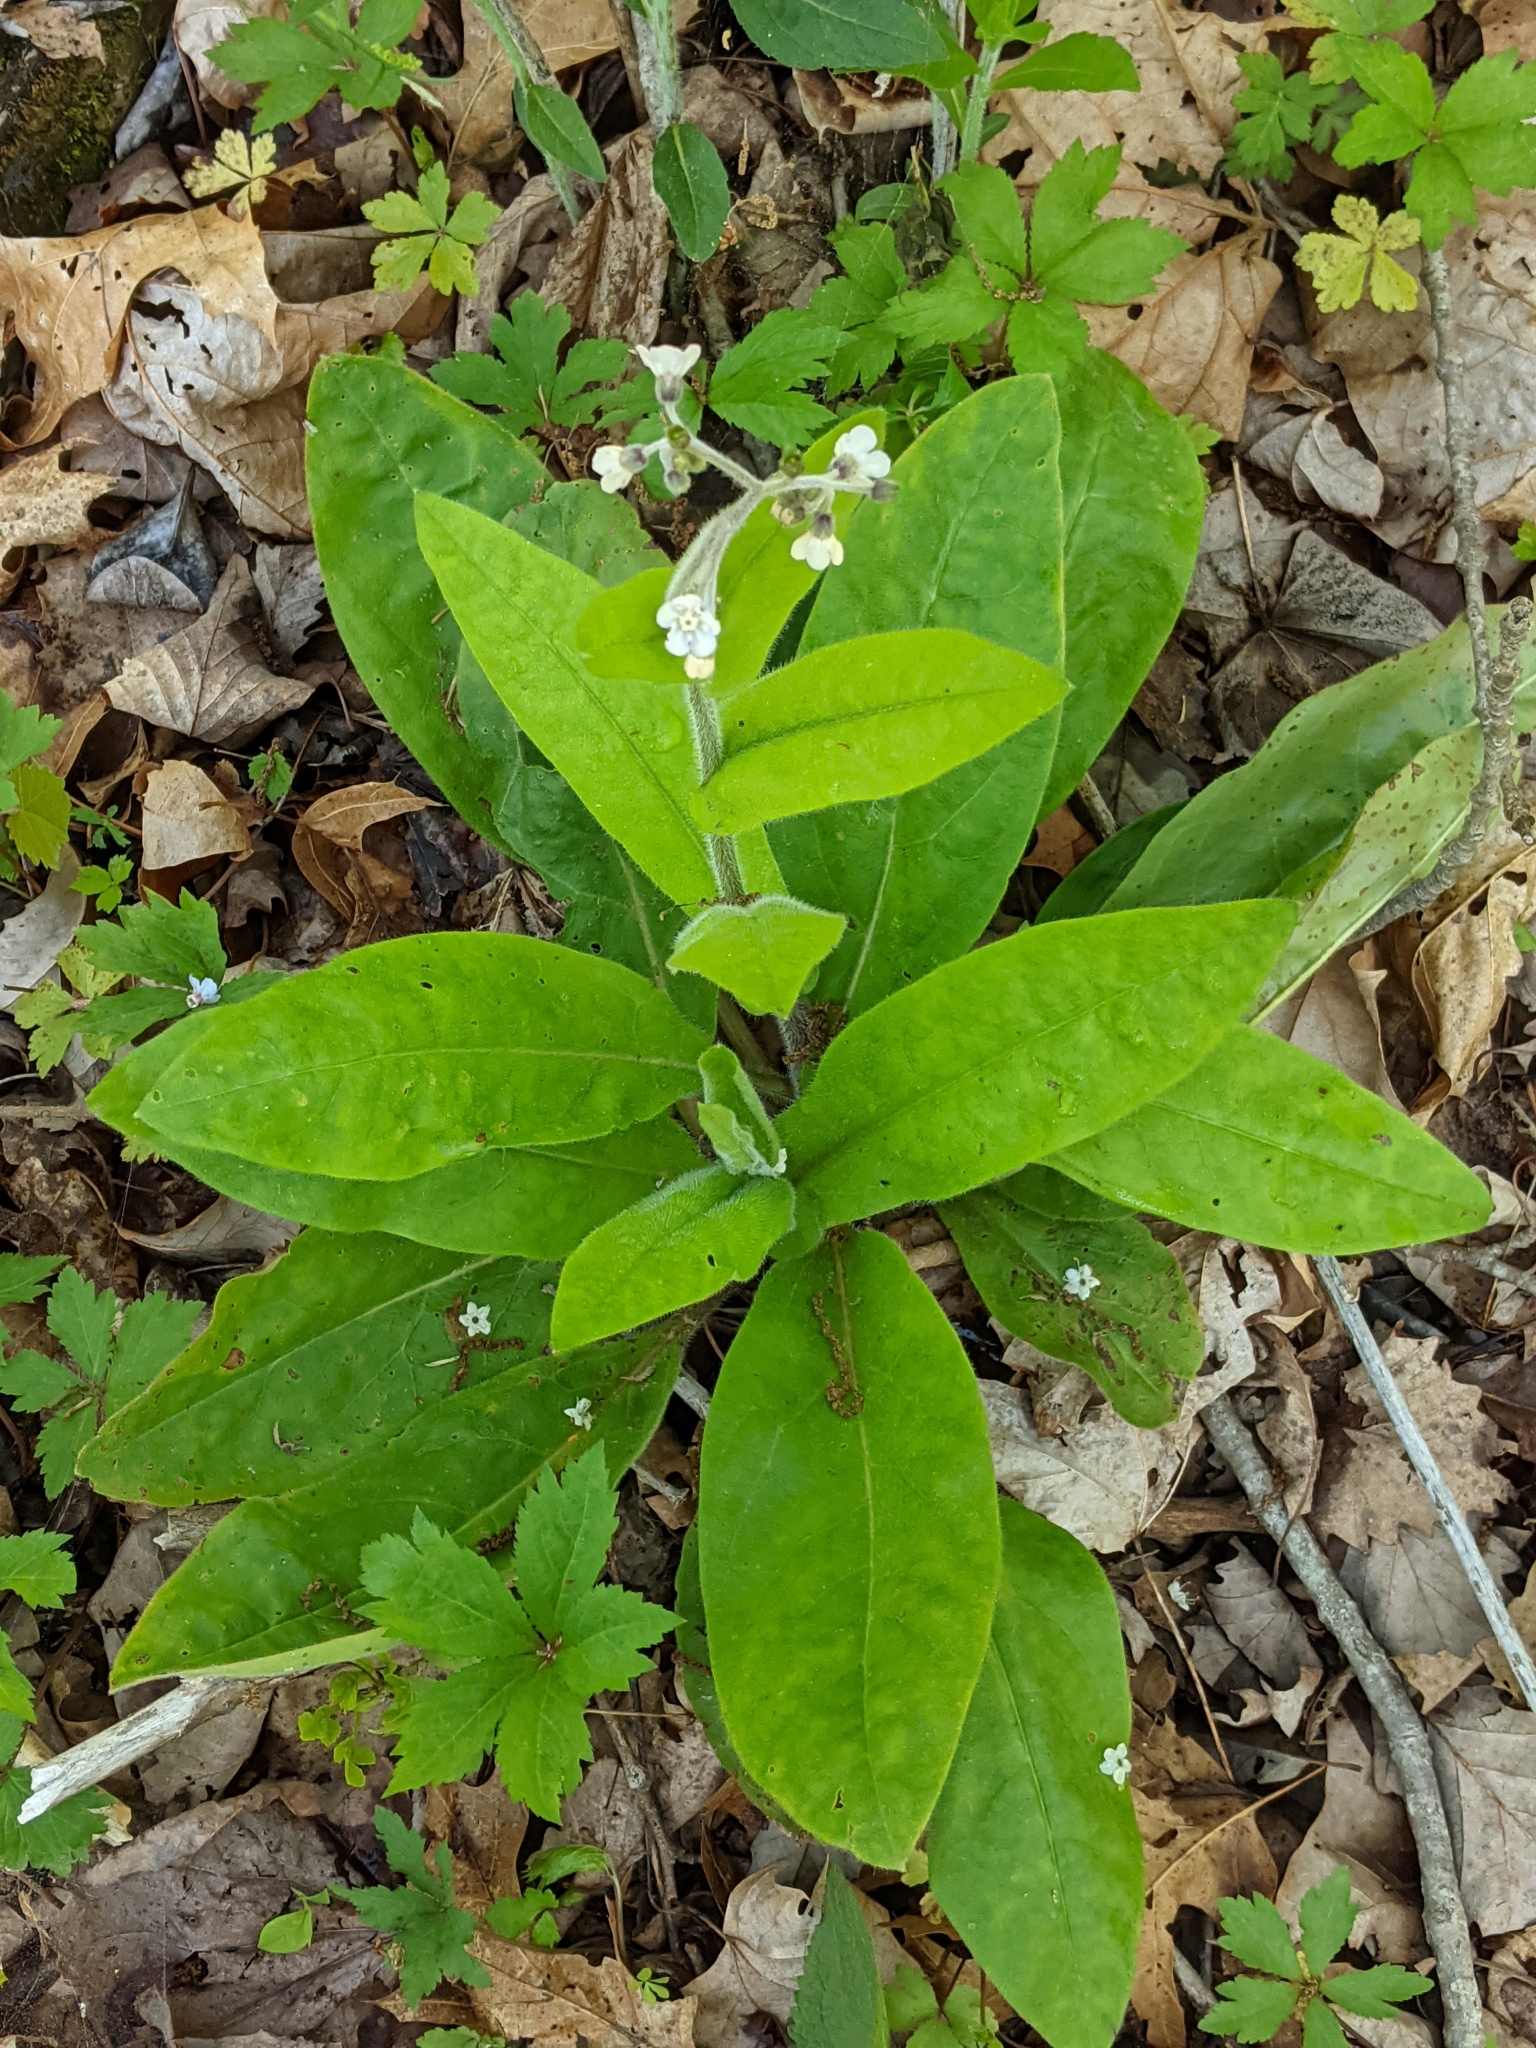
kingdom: Plantae
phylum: Tracheophyta
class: Magnoliopsida
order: Boraginales
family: Boraginaceae
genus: Andersonglossum
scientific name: Andersonglossum virginianum
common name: Wild comfrey
